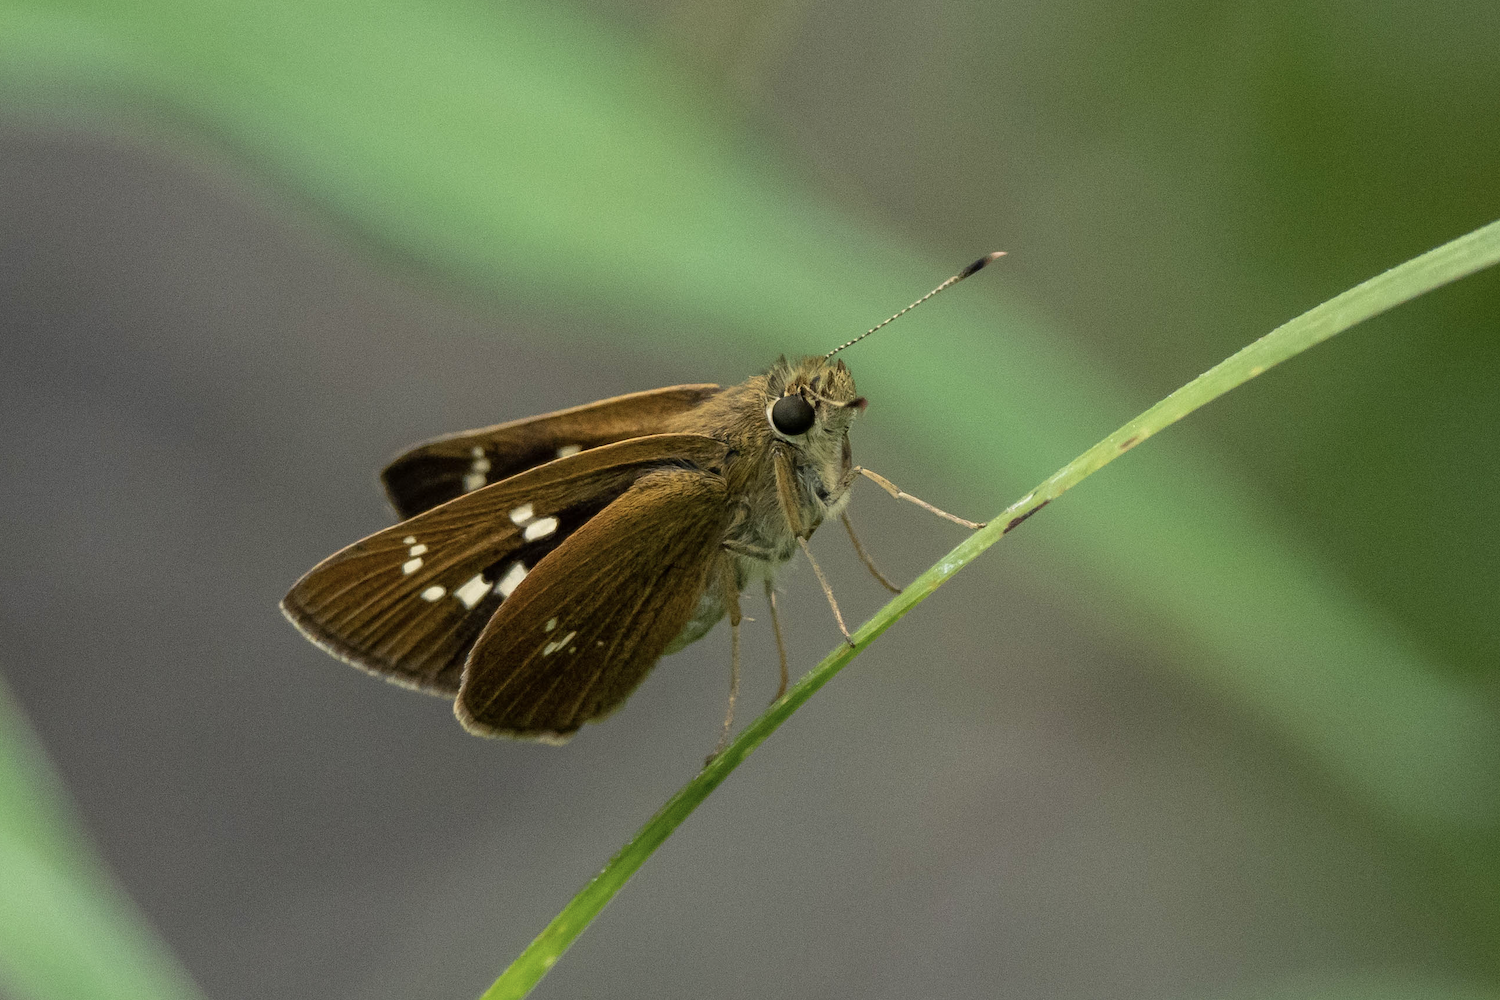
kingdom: Animalia
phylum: Arthropoda
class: Insecta
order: Lepidoptera
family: Hesperiidae
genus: Polytremis
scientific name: Polytremis lubricans
